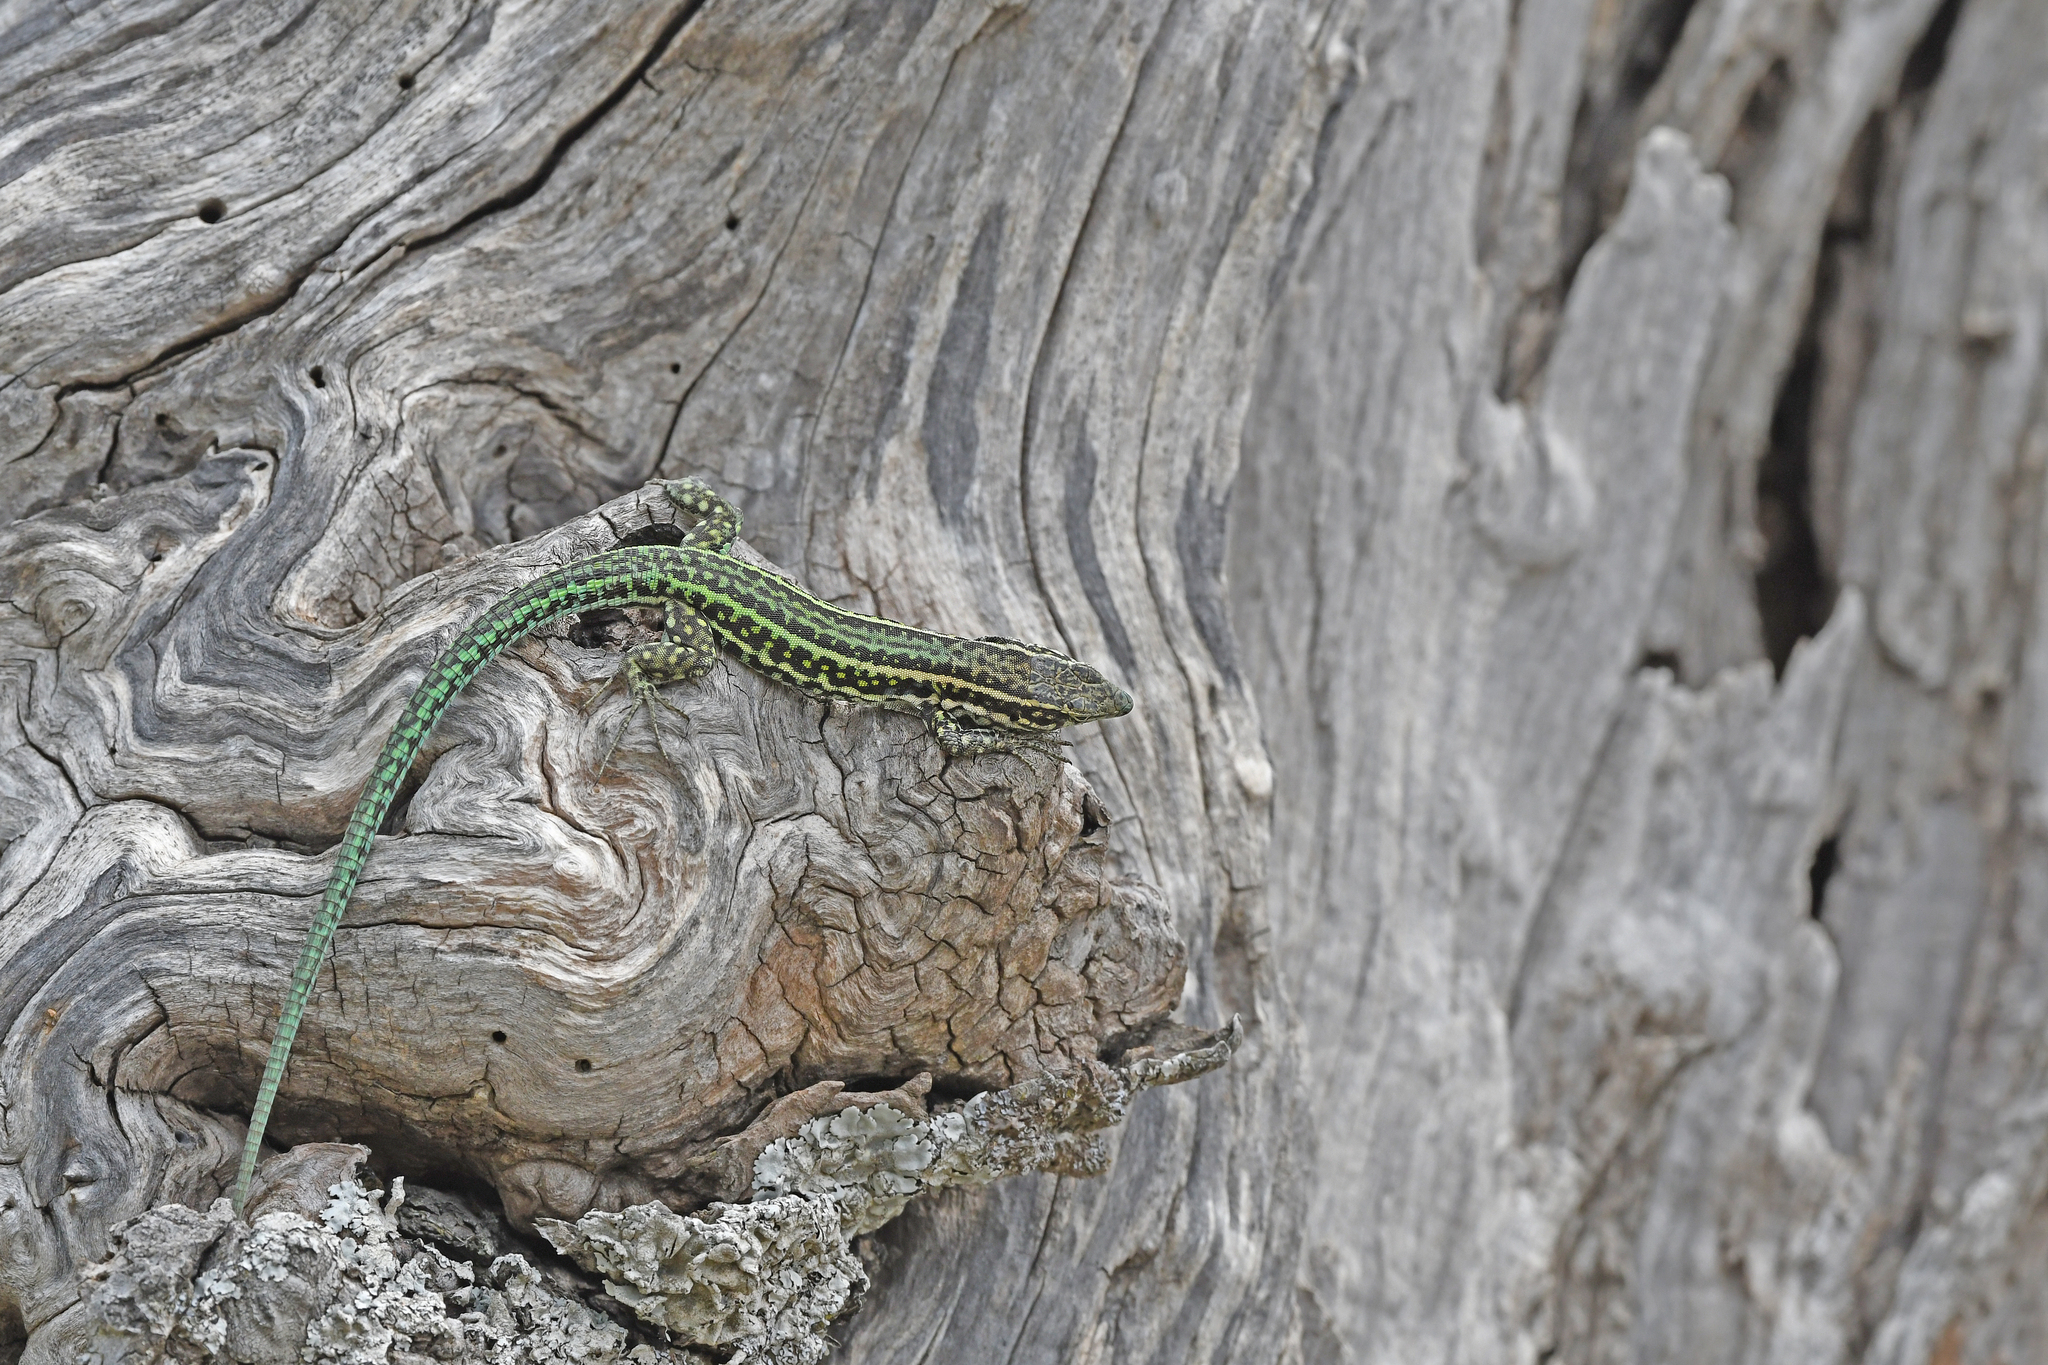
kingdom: Animalia
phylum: Chordata
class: Squamata
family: Lacertidae
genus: Podarcis
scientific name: Podarcis tiliguerta
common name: Tyrrhenian wall lizard
